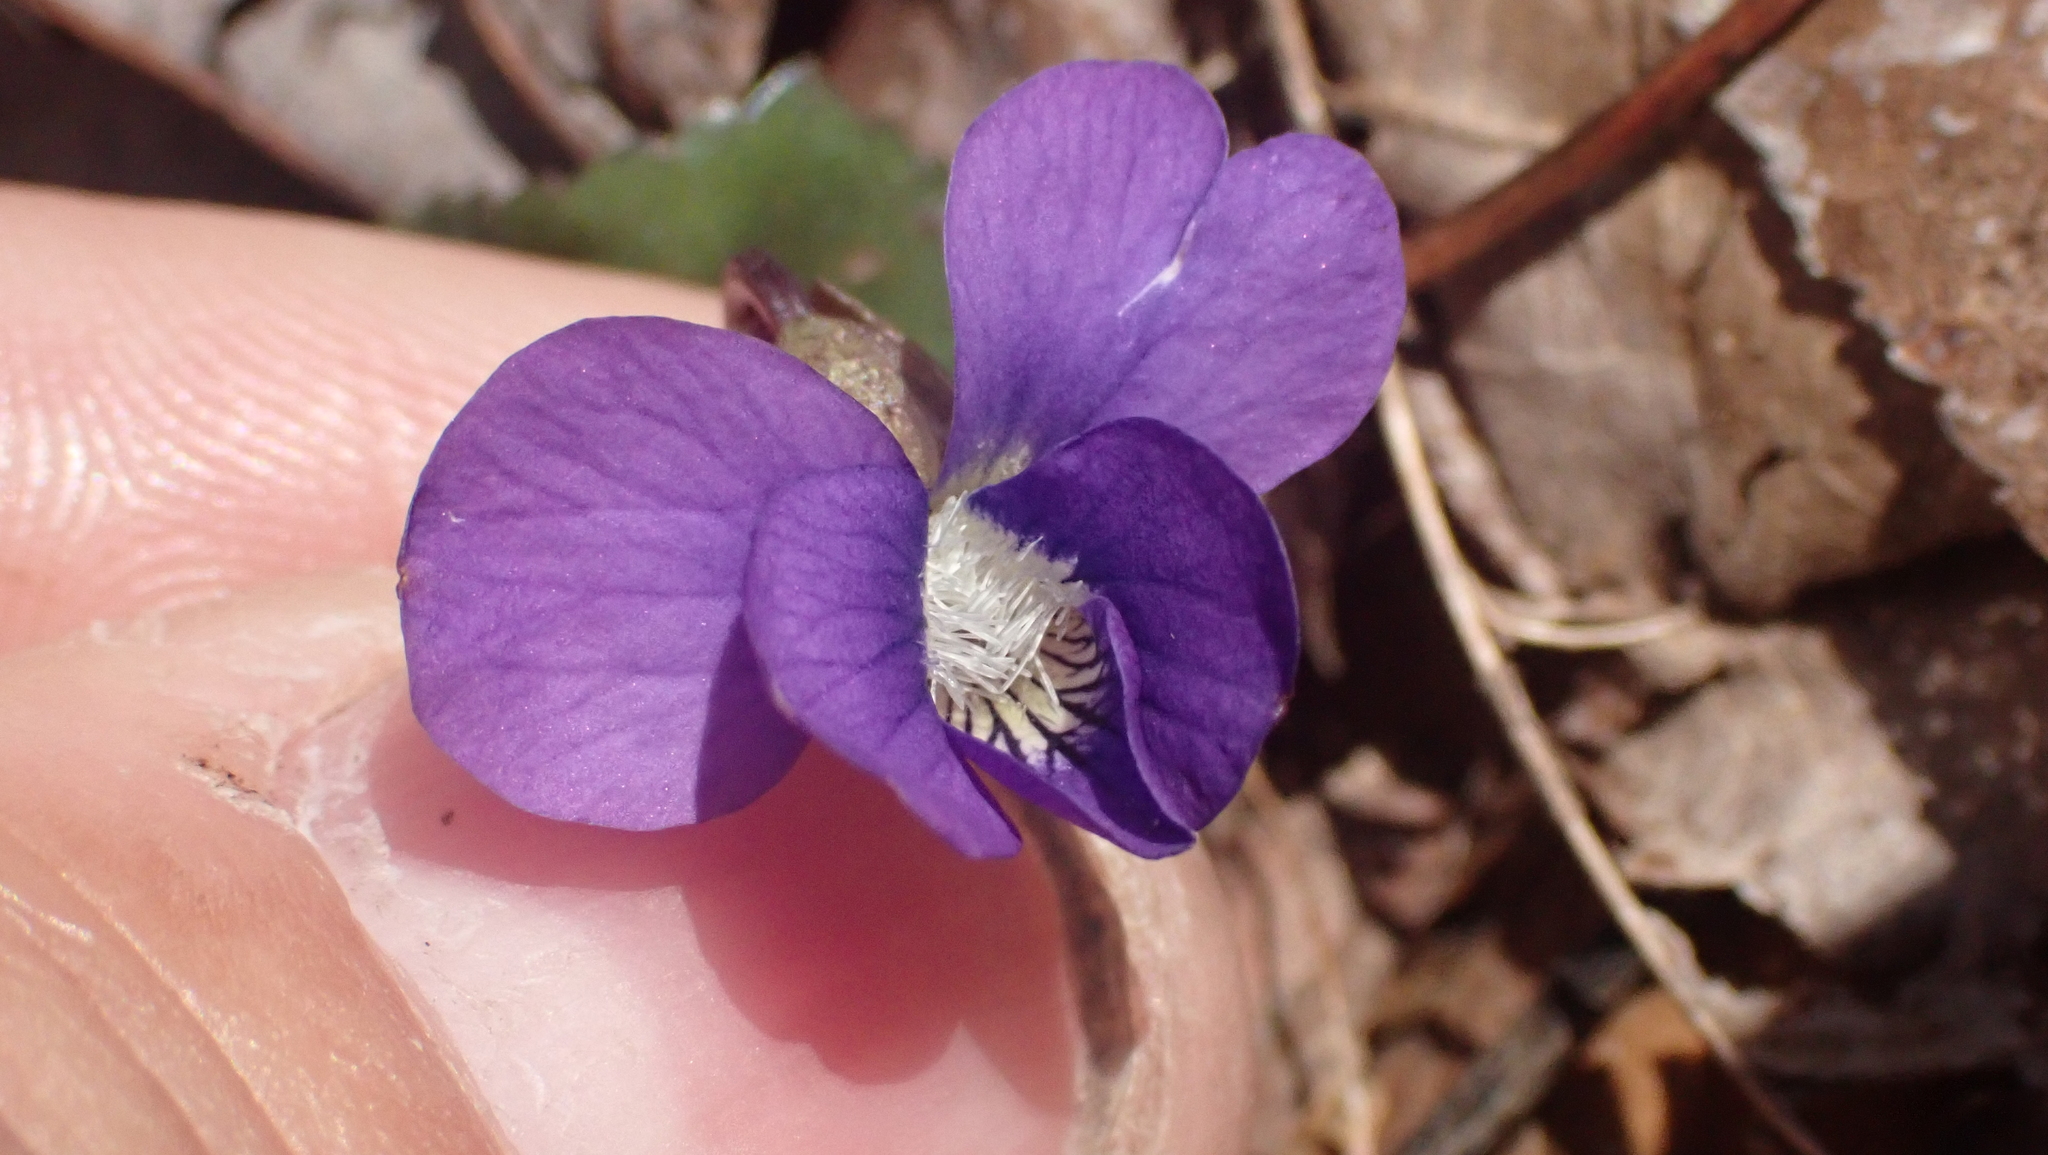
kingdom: Plantae
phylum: Tracheophyta
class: Magnoliopsida
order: Malpighiales
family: Violaceae
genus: Viola
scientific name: Viola sororia
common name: Dooryard violet
